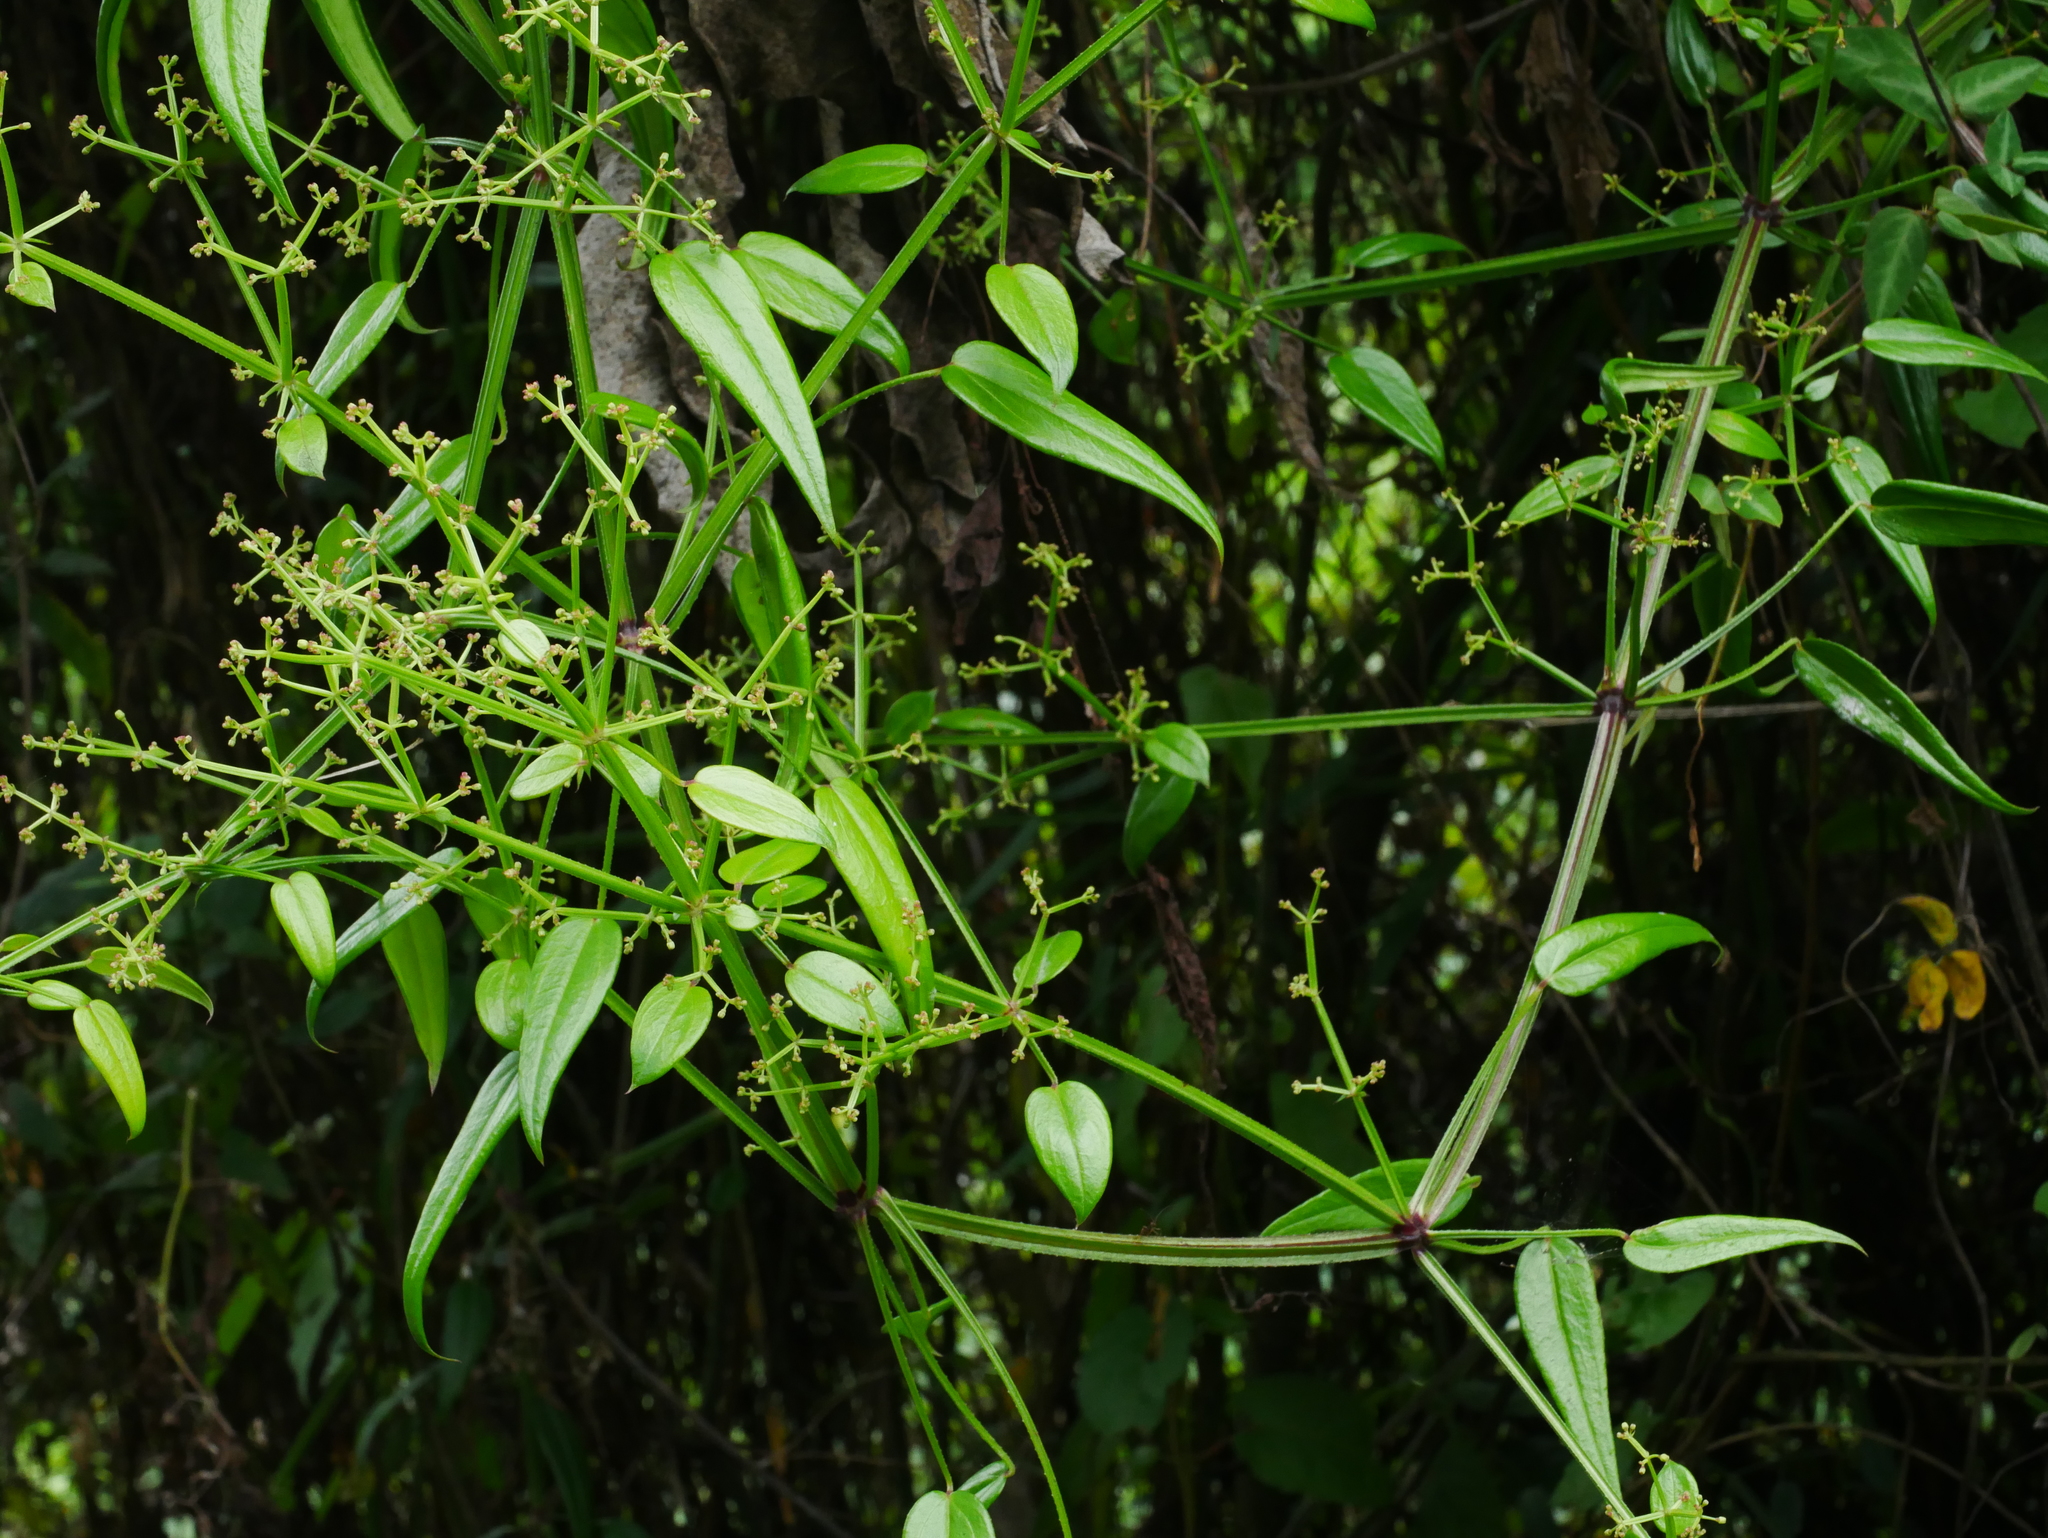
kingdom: Plantae
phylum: Tracheophyta
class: Magnoliopsida
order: Gentianales
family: Rubiaceae
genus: Rubia
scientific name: Rubia alata
